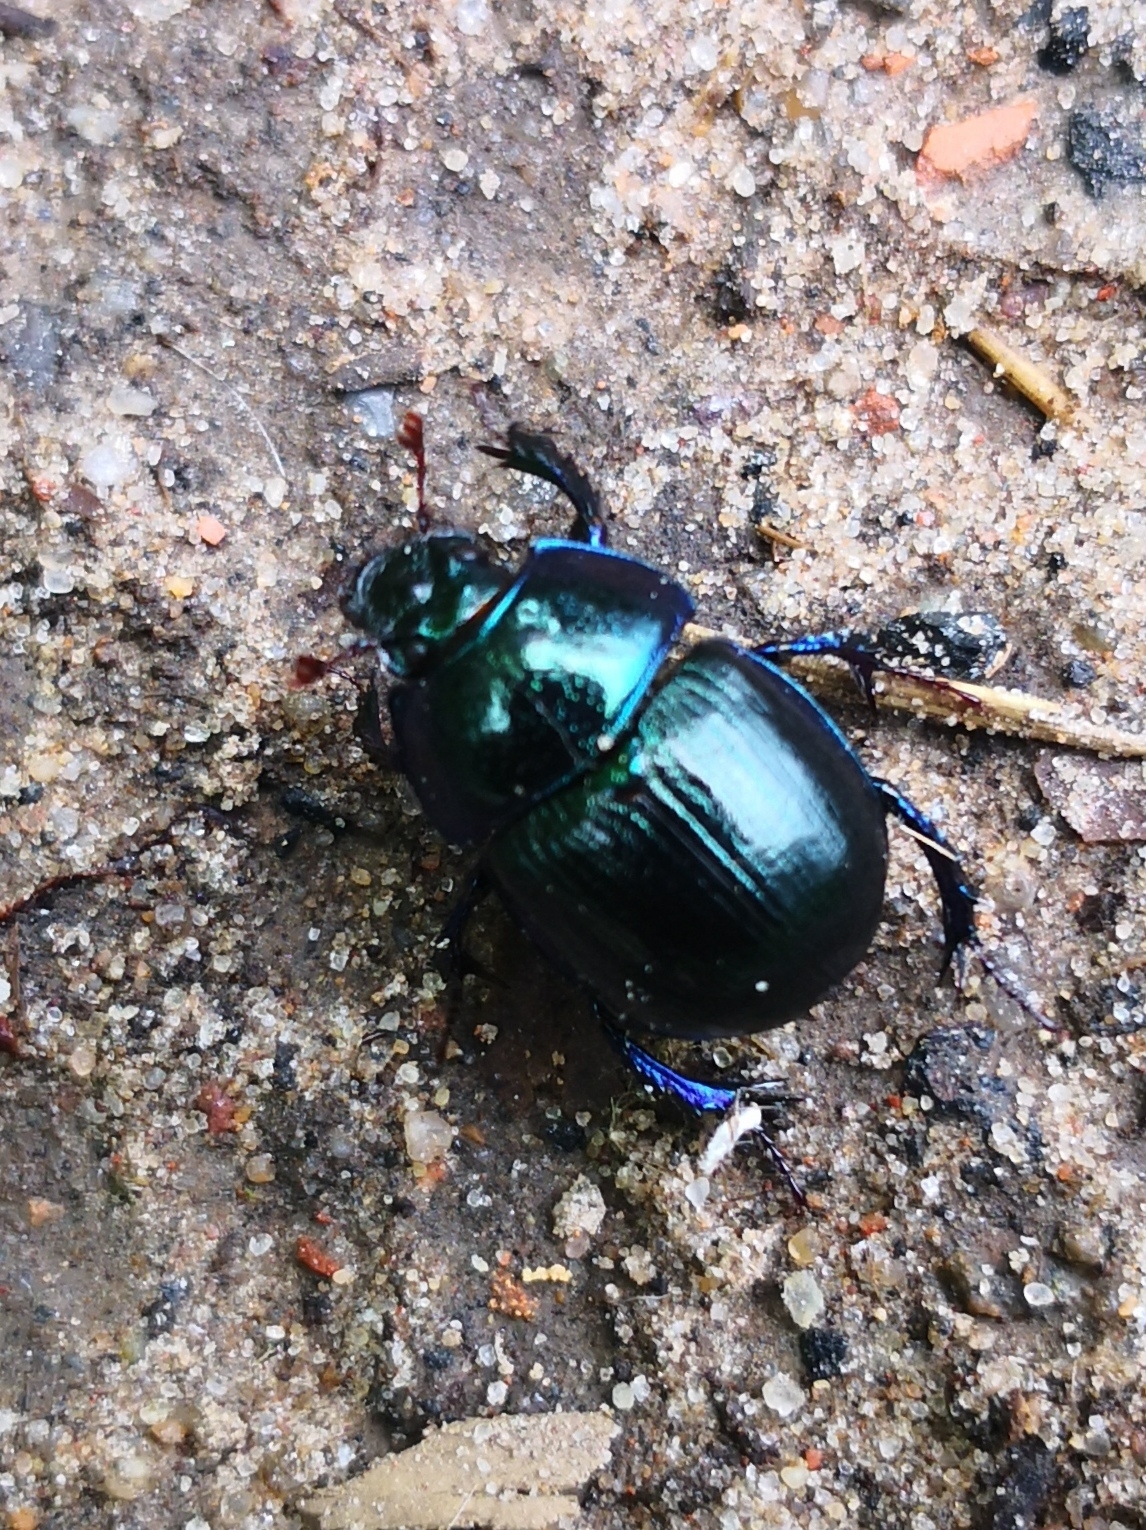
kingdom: Animalia
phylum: Arthropoda
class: Insecta
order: Coleoptera
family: Geotrupidae
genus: Anoplotrupes
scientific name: Anoplotrupes stercorosus
